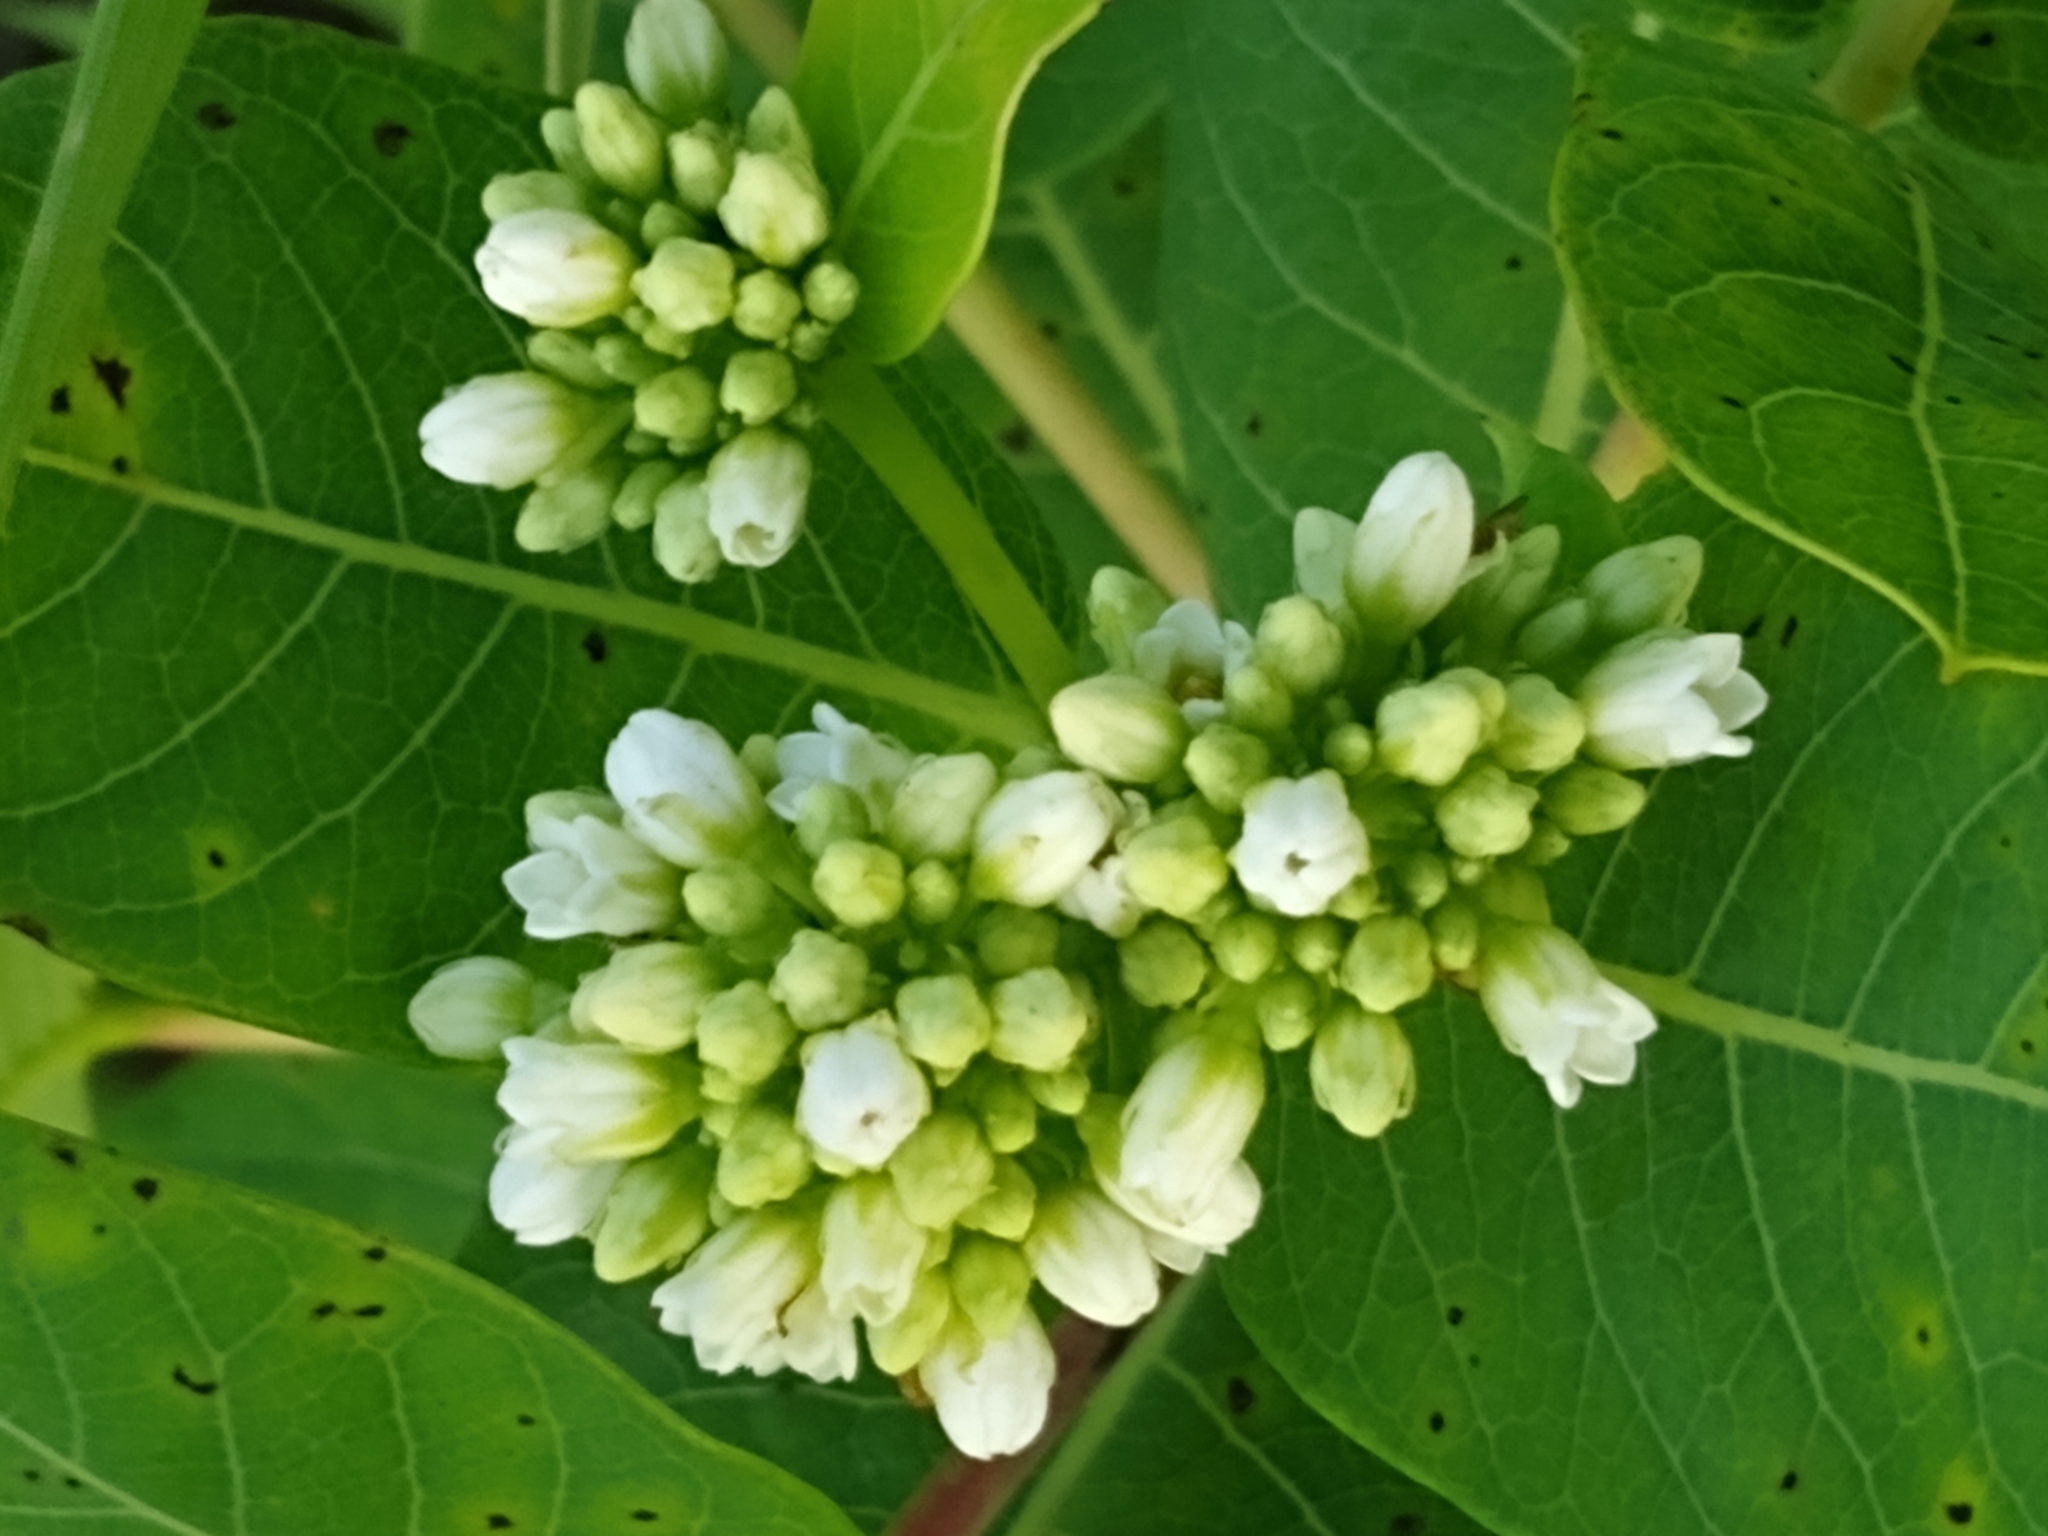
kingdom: Plantae
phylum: Tracheophyta
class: Magnoliopsida
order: Gentianales
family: Apocynaceae
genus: Apocynum
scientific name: Apocynum cannabinum
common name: Hemp dogbane
